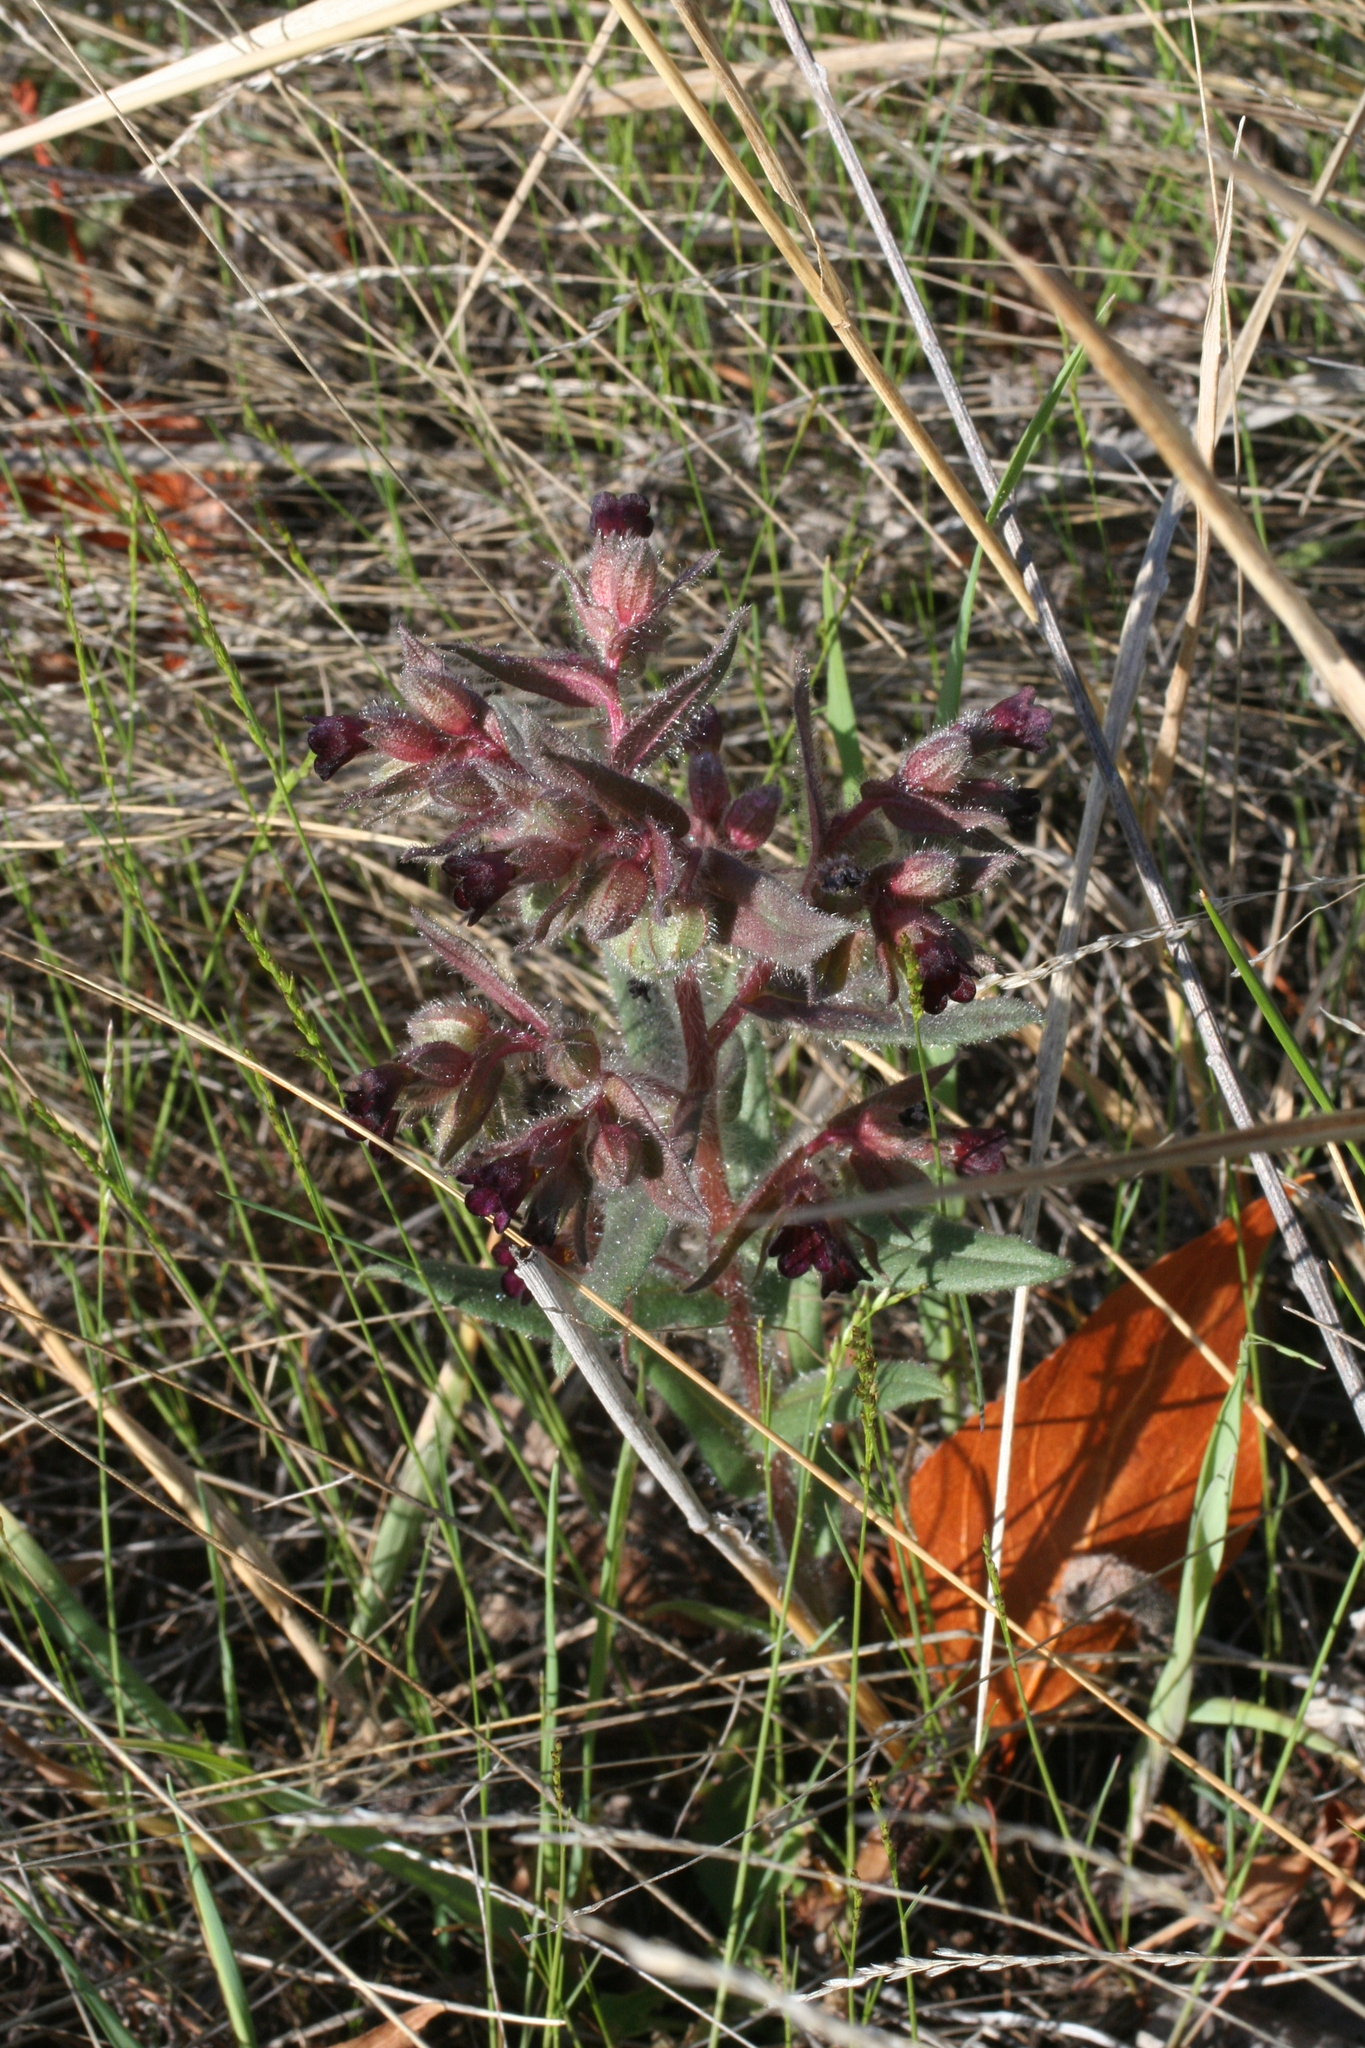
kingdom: Plantae
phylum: Tracheophyta
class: Magnoliopsida
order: Boraginales
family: Boraginaceae
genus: Nonea
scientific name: Nonea pulla
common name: Brown nonea
